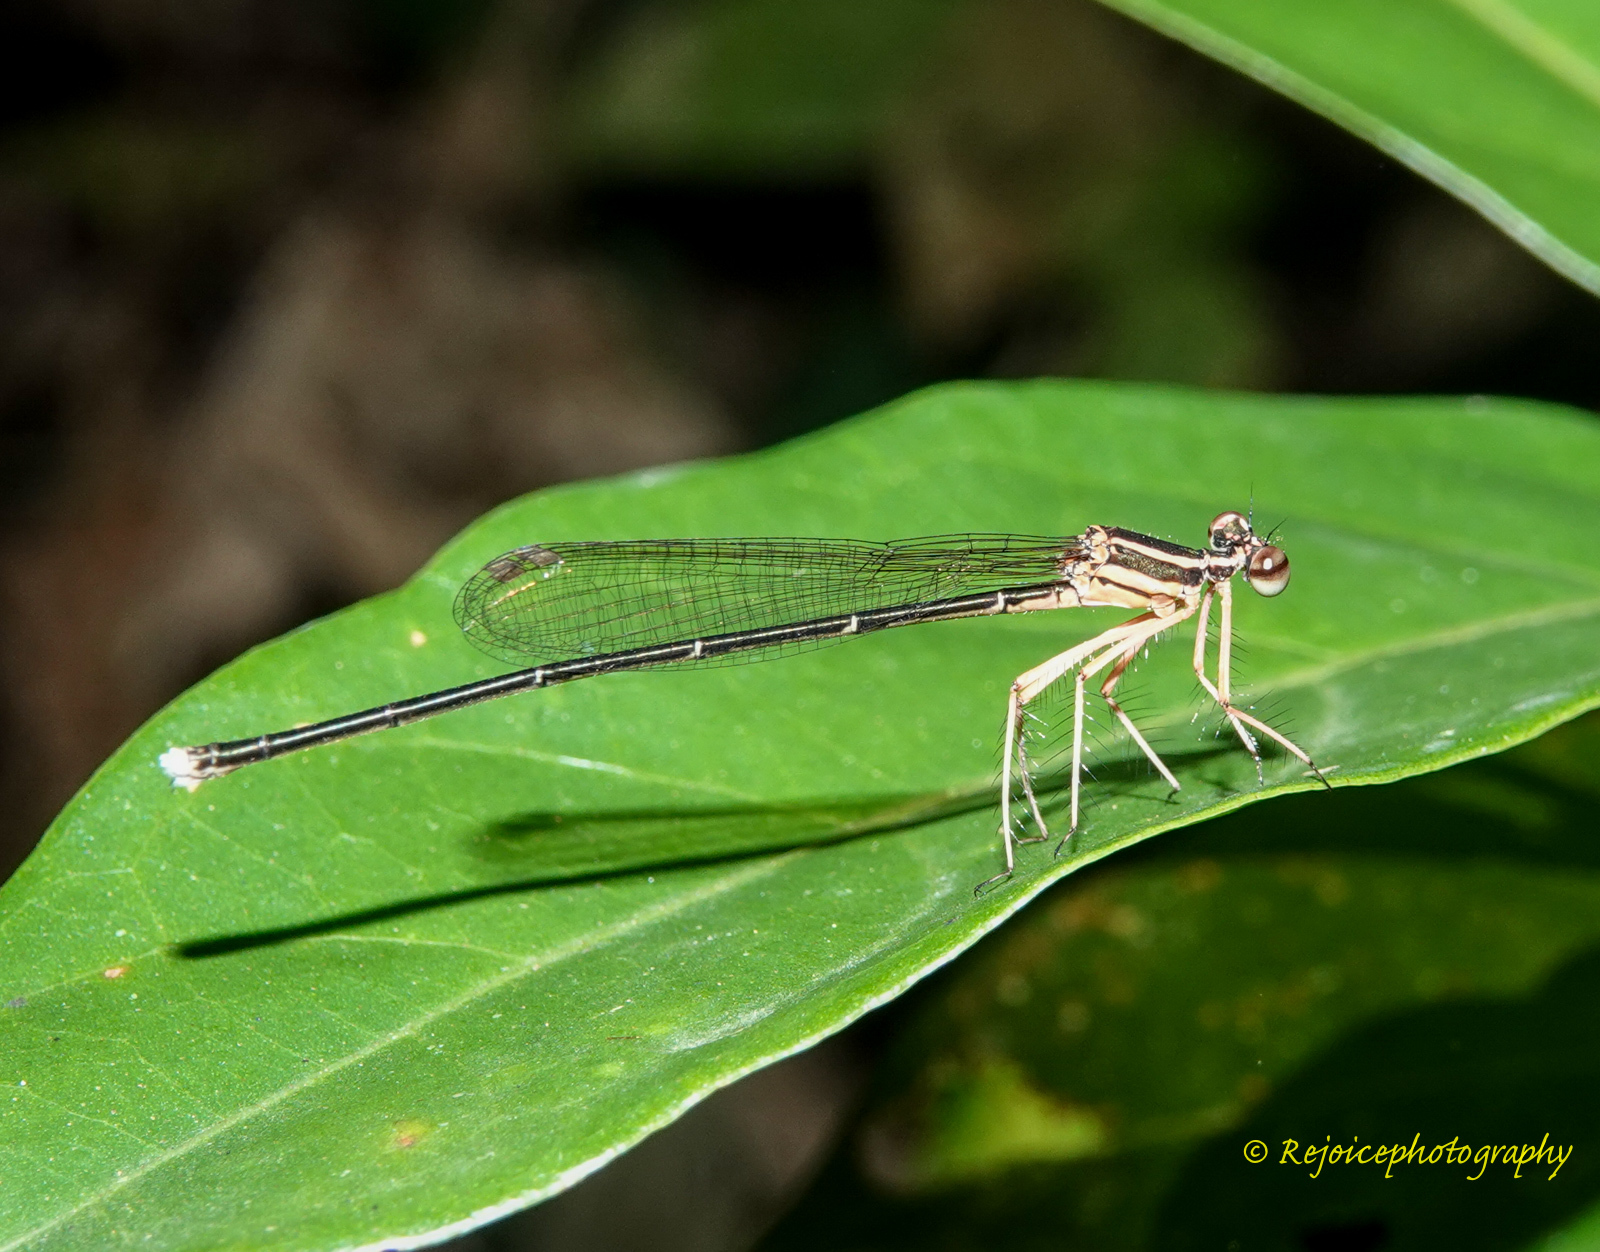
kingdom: Animalia
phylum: Arthropoda
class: Insecta
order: Odonata
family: Platycnemididae
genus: Pseudocopera
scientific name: Pseudocopera ciliata
